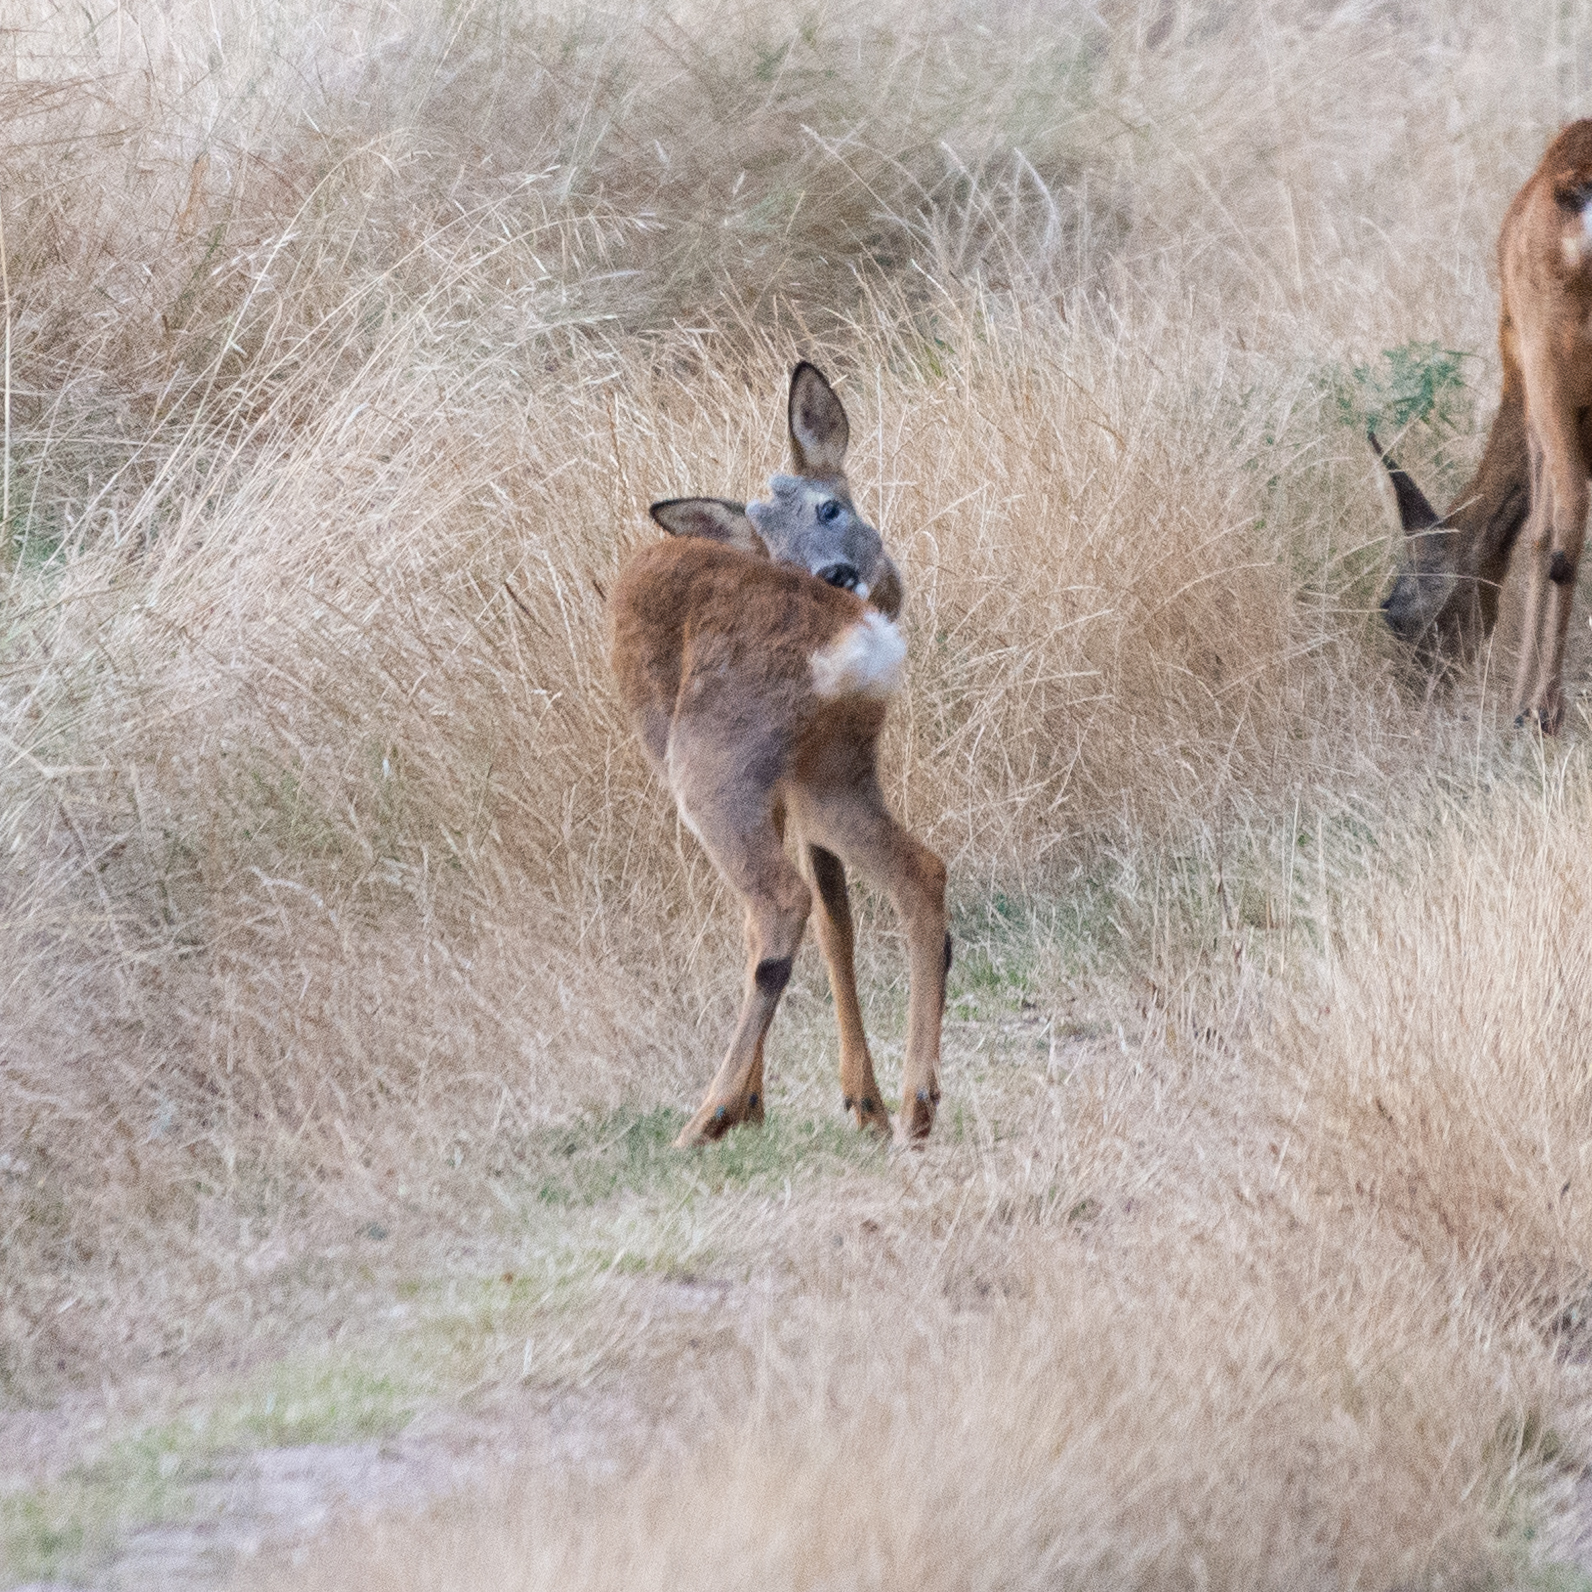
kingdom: Animalia
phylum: Chordata
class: Mammalia
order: Artiodactyla
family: Cervidae
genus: Capreolus
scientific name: Capreolus capreolus
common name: Western roe deer
